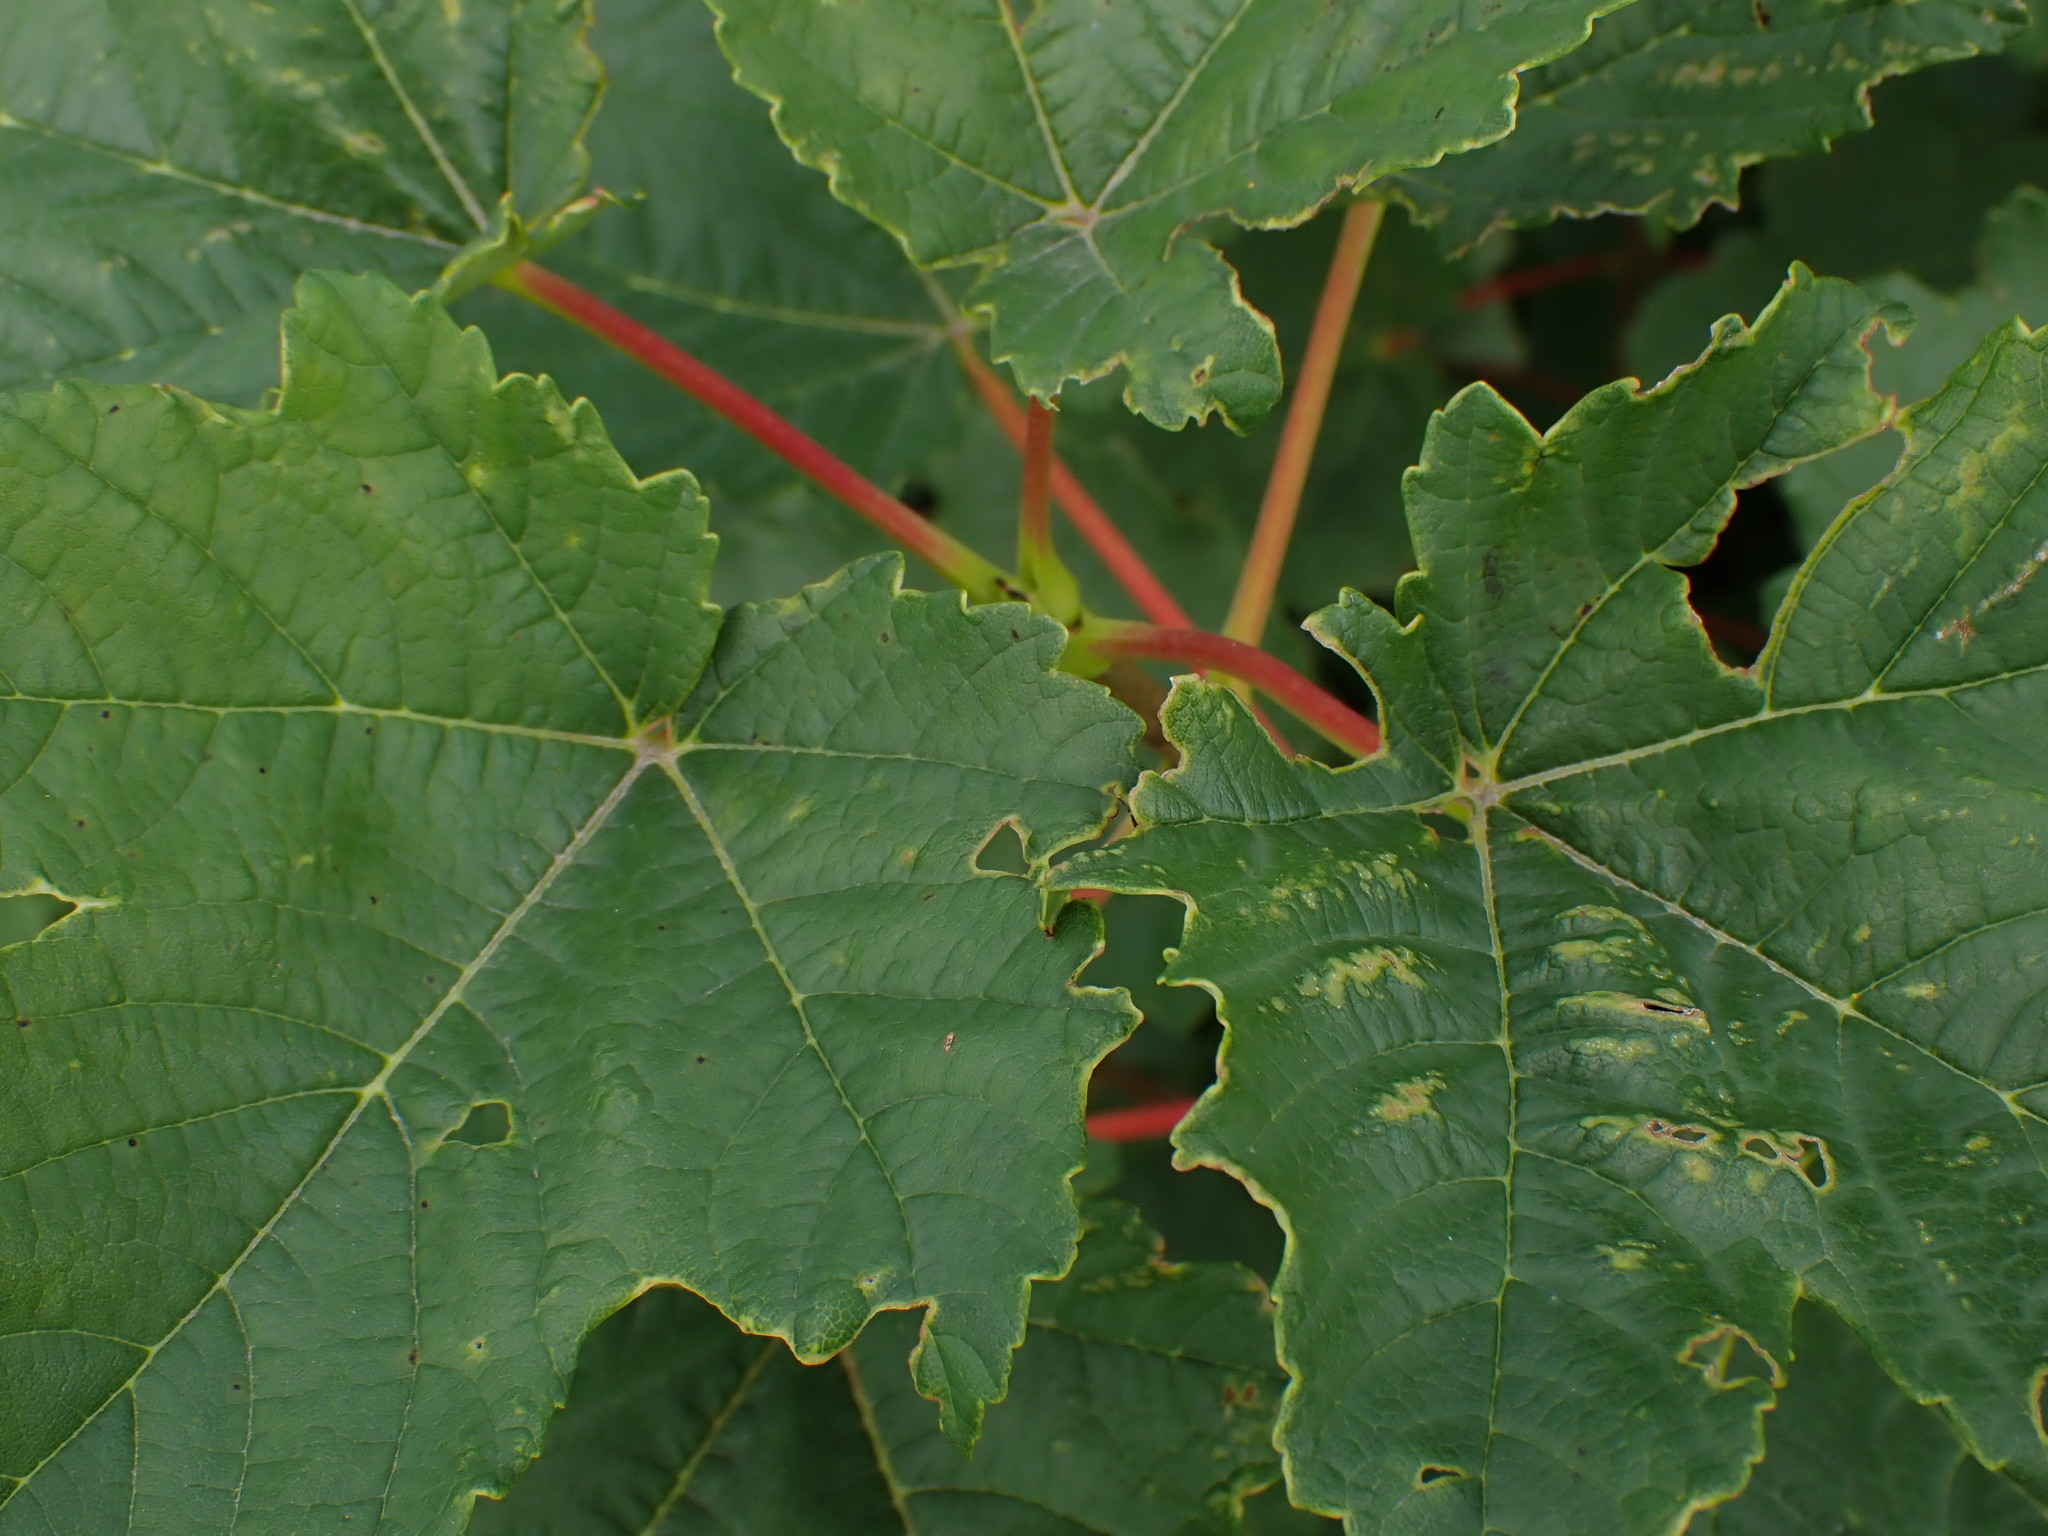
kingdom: Plantae
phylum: Tracheophyta
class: Magnoliopsida
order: Sapindales
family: Sapindaceae
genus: Acer
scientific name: Acer pseudoplatanus
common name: Sycamore
